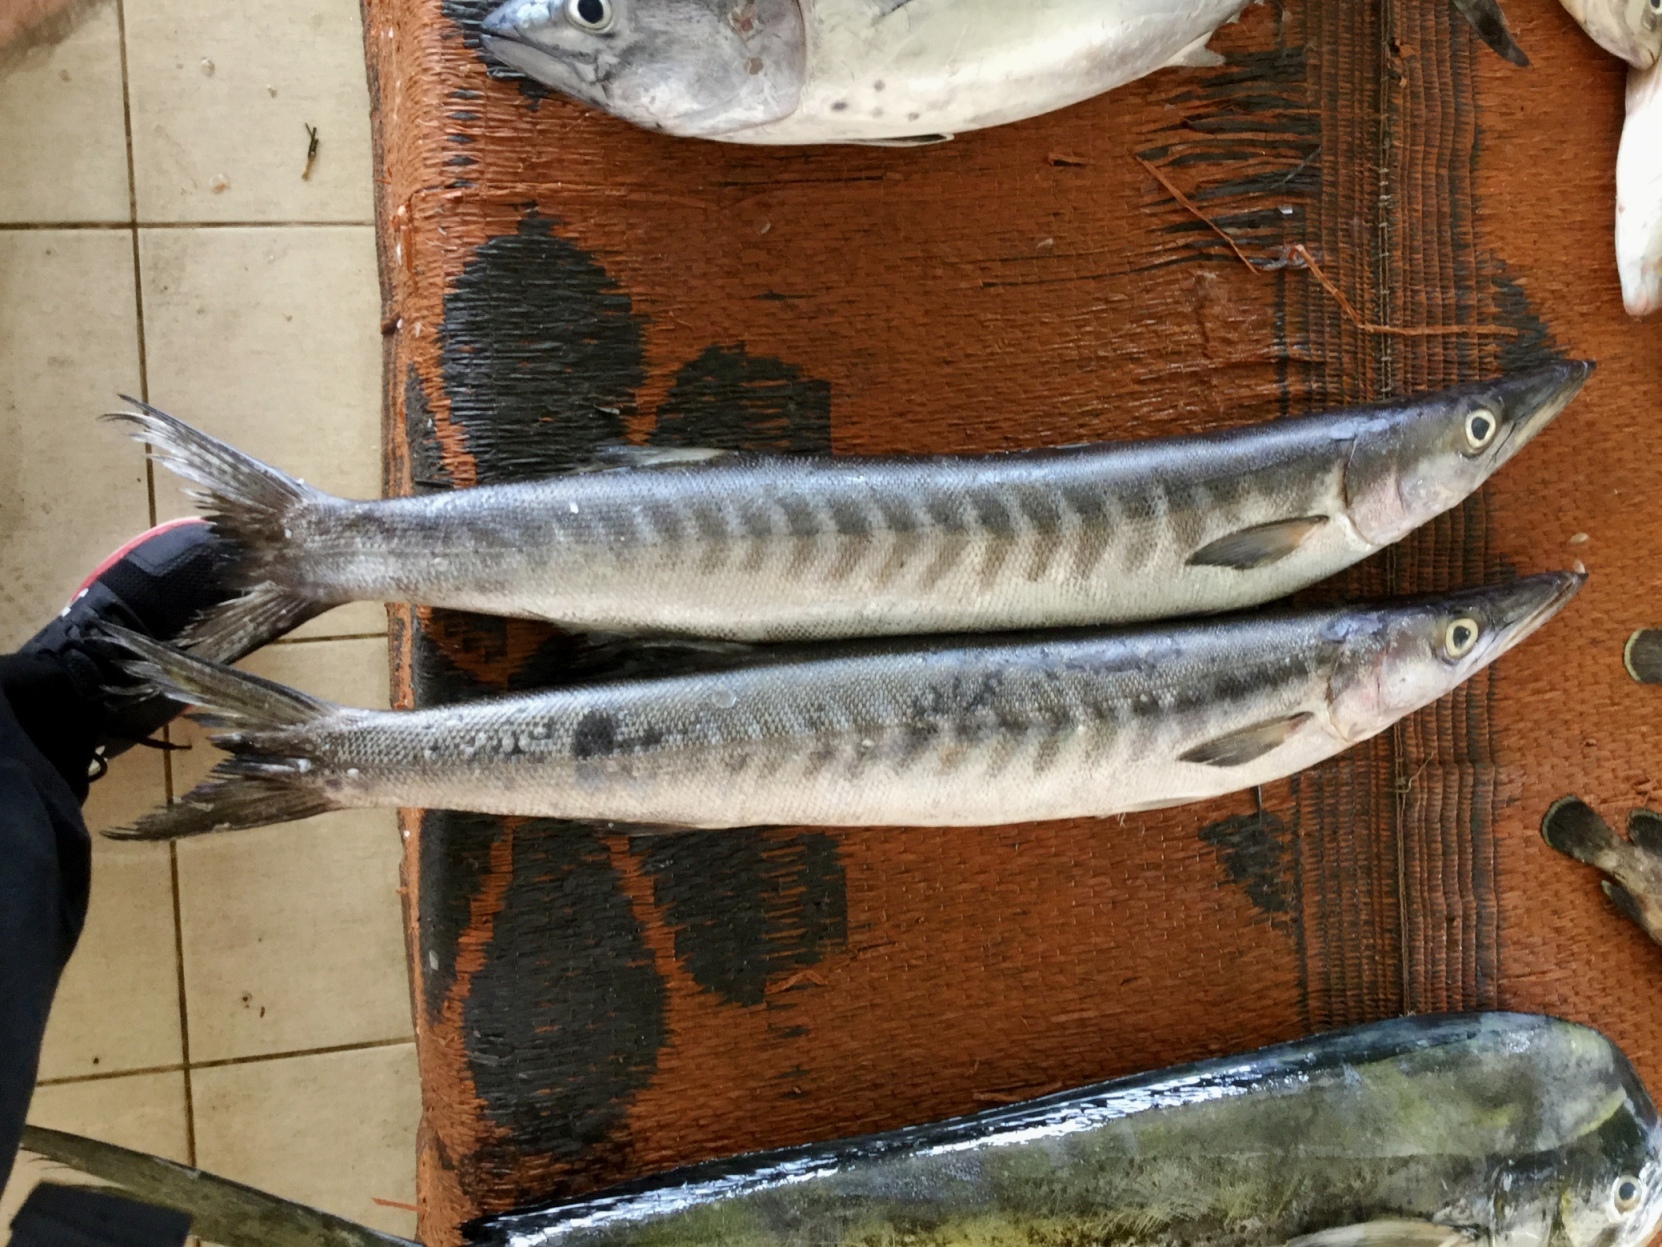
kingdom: Animalia
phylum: Chordata
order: Perciformes
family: Sphyraenidae
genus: Sphyraena
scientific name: Sphyraena putnamae
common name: Sawtooth barracuda
